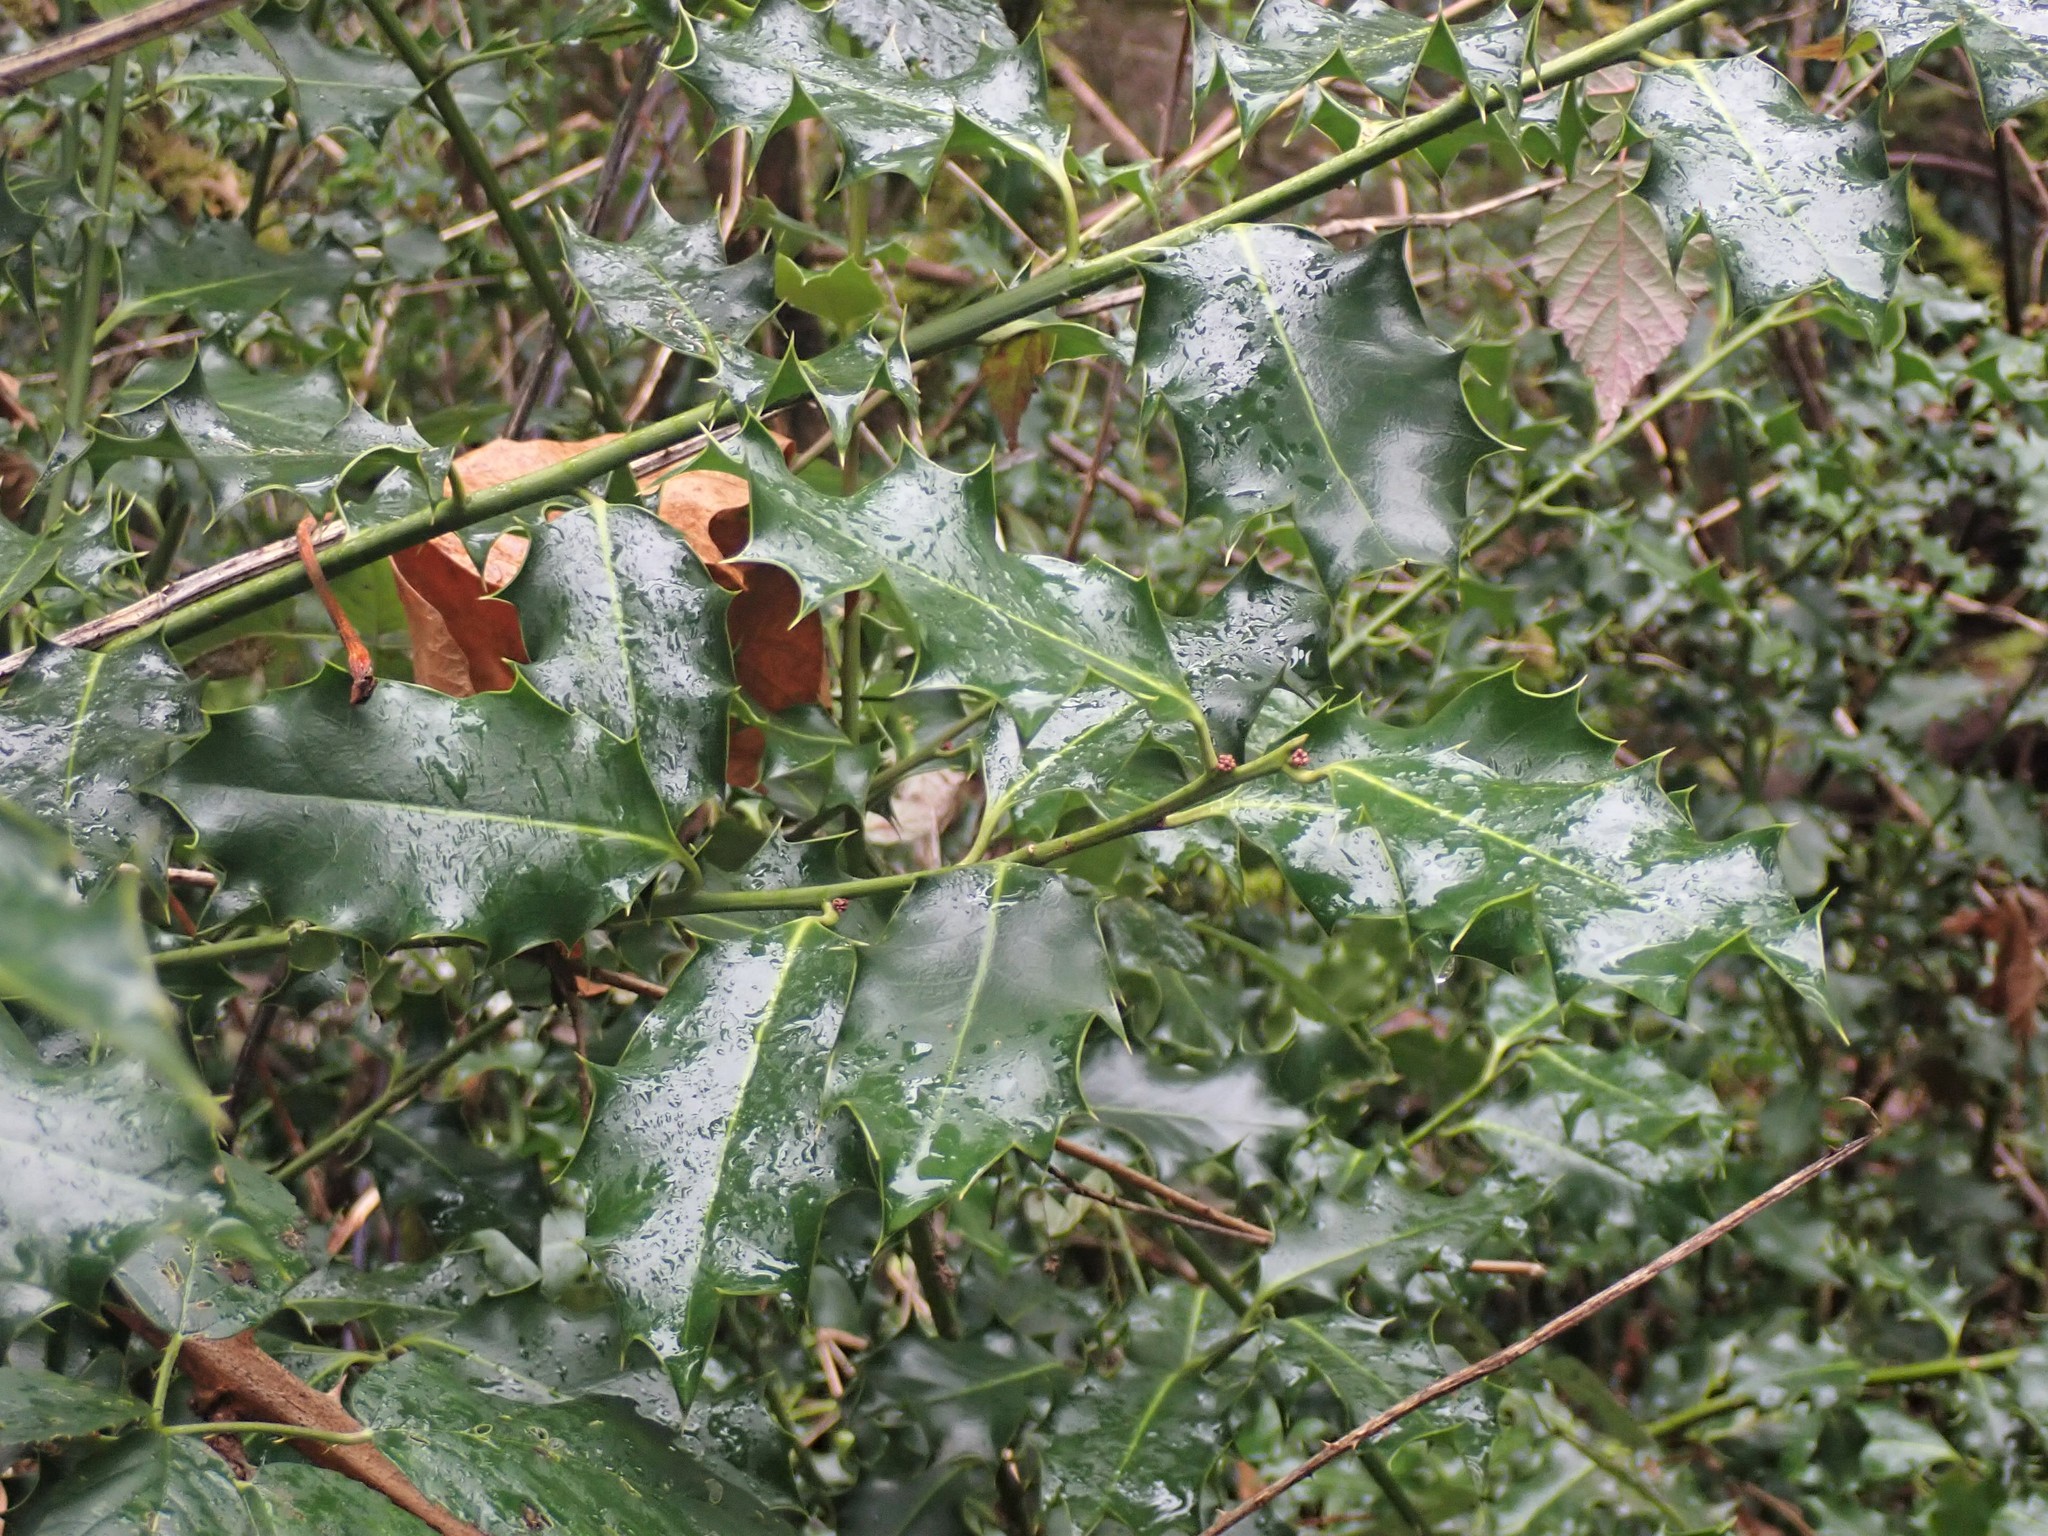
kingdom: Plantae
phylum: Tracheophyta
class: Magnoliopsida
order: Aquifoliales
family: Aquifoliaceae
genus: Ilex
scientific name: Ilex aquifolium
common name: English holly
